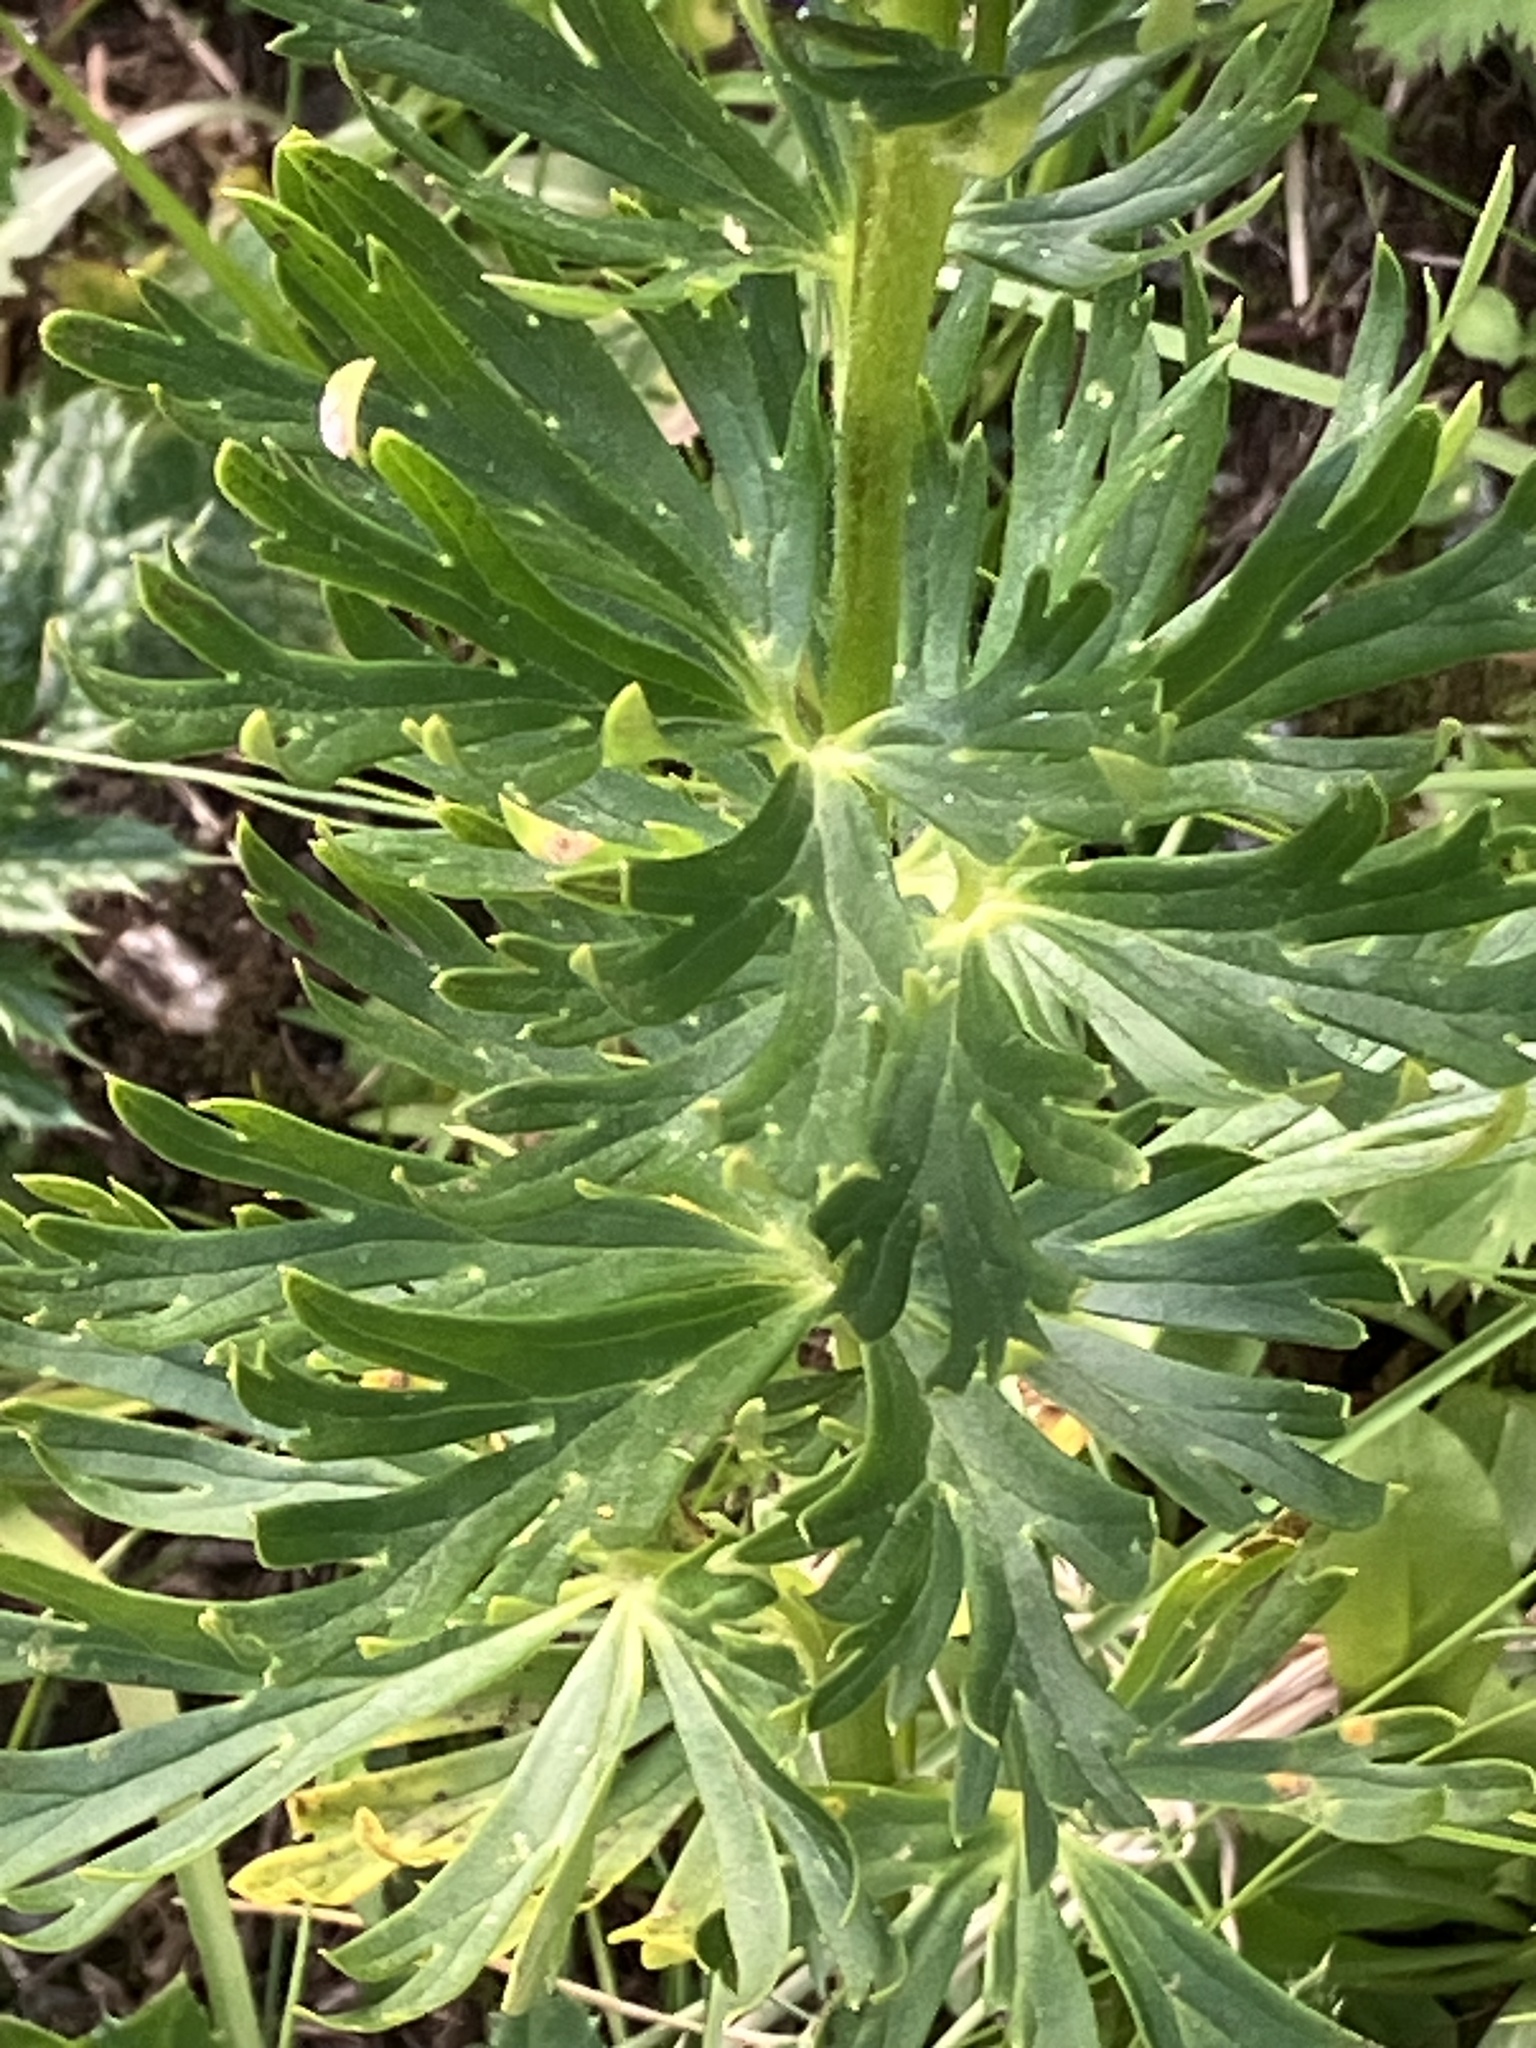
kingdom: Plantae
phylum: Tracheophyta
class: Magnoliopsida
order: Ranunculales
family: Ranunculaceae
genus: Aconitum
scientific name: Aconitum tauricum
